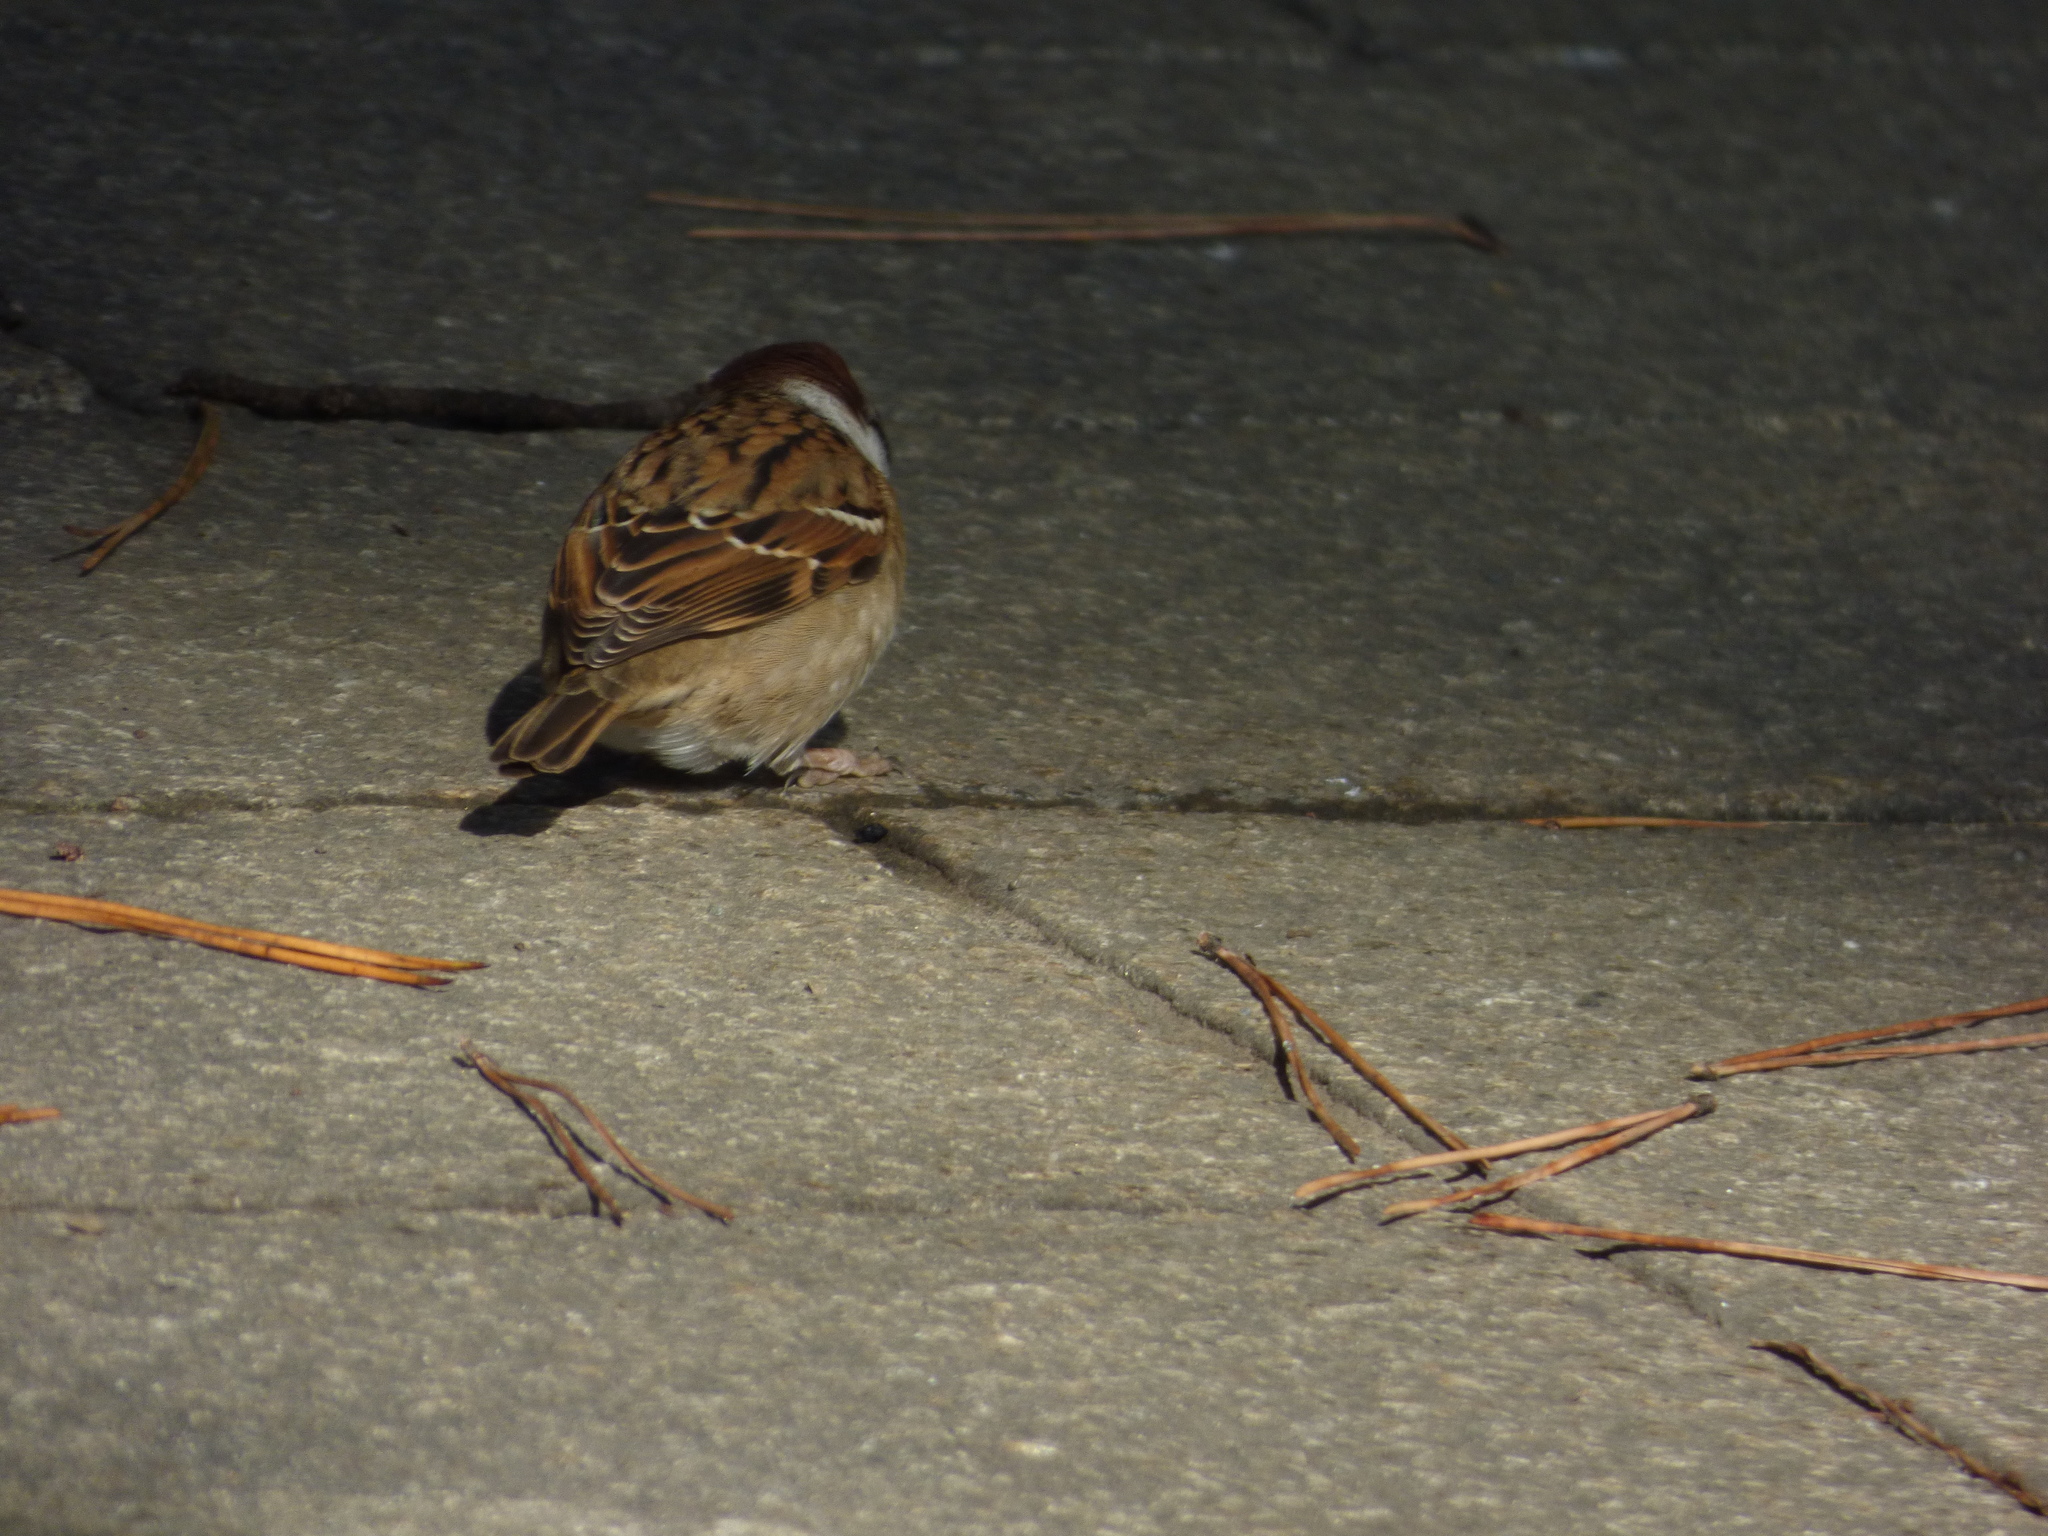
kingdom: Animalia
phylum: Chordata
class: Aves
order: Passeriformes
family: Passeridae
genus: Passer
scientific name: Passer montanus
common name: Eurasian tree sparrow
